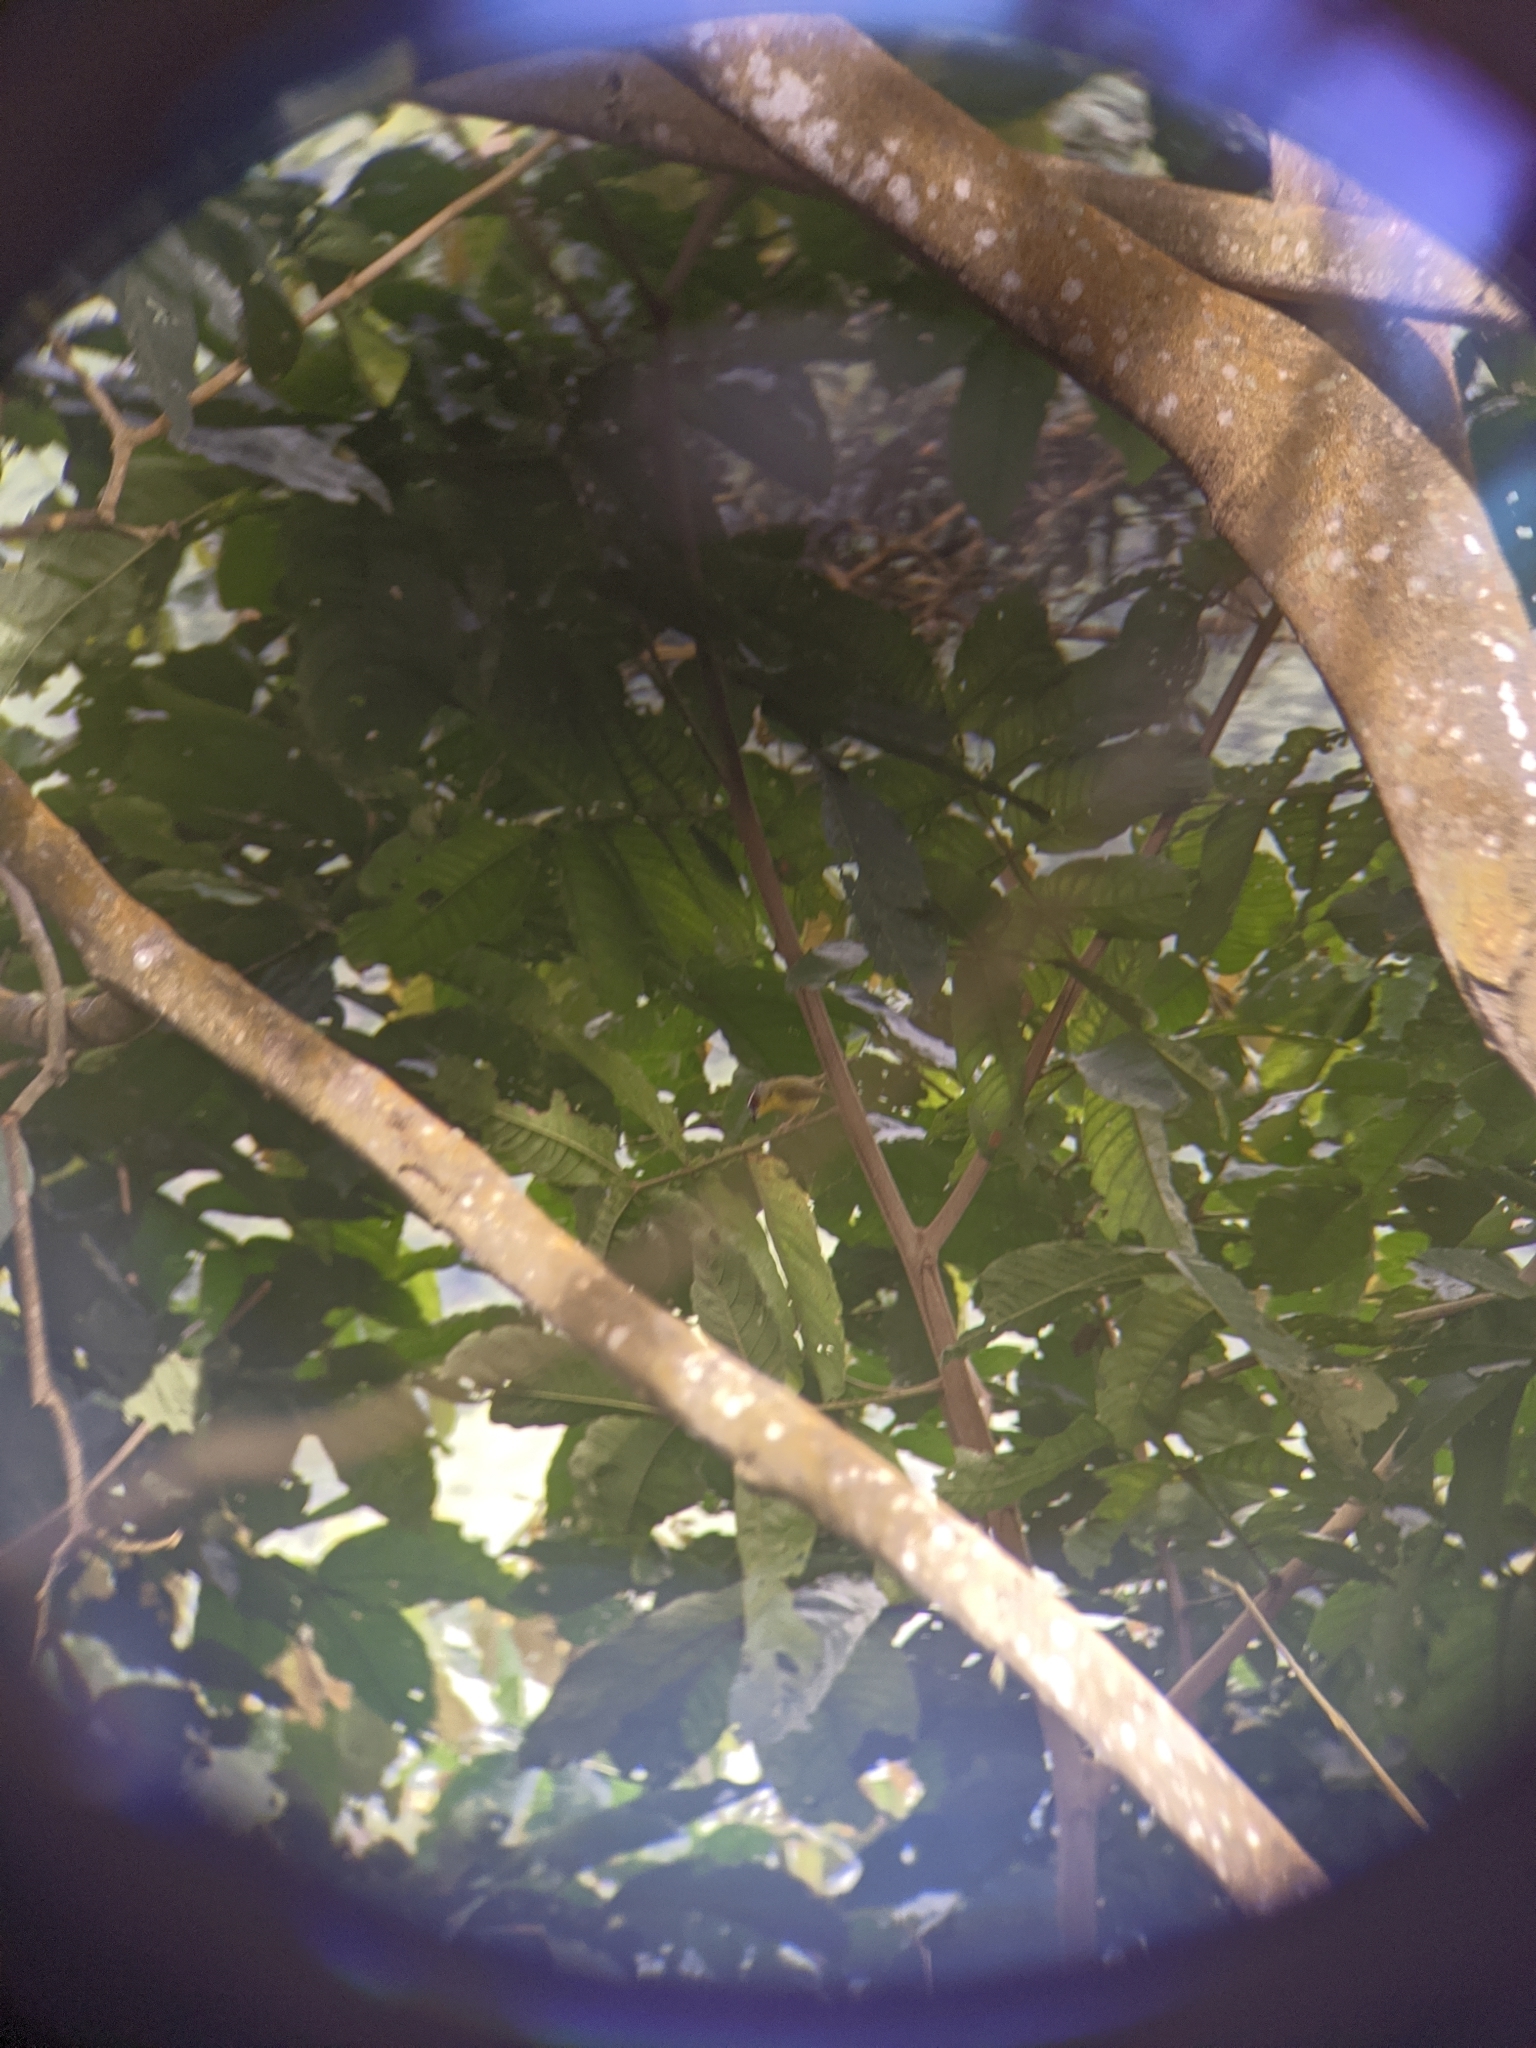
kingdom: Animalia
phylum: Chordata
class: Aves
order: Passeriformes
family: Parulidae
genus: Basileuterus
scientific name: Basileuterus rufifrons
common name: Rufous-capped warbler
